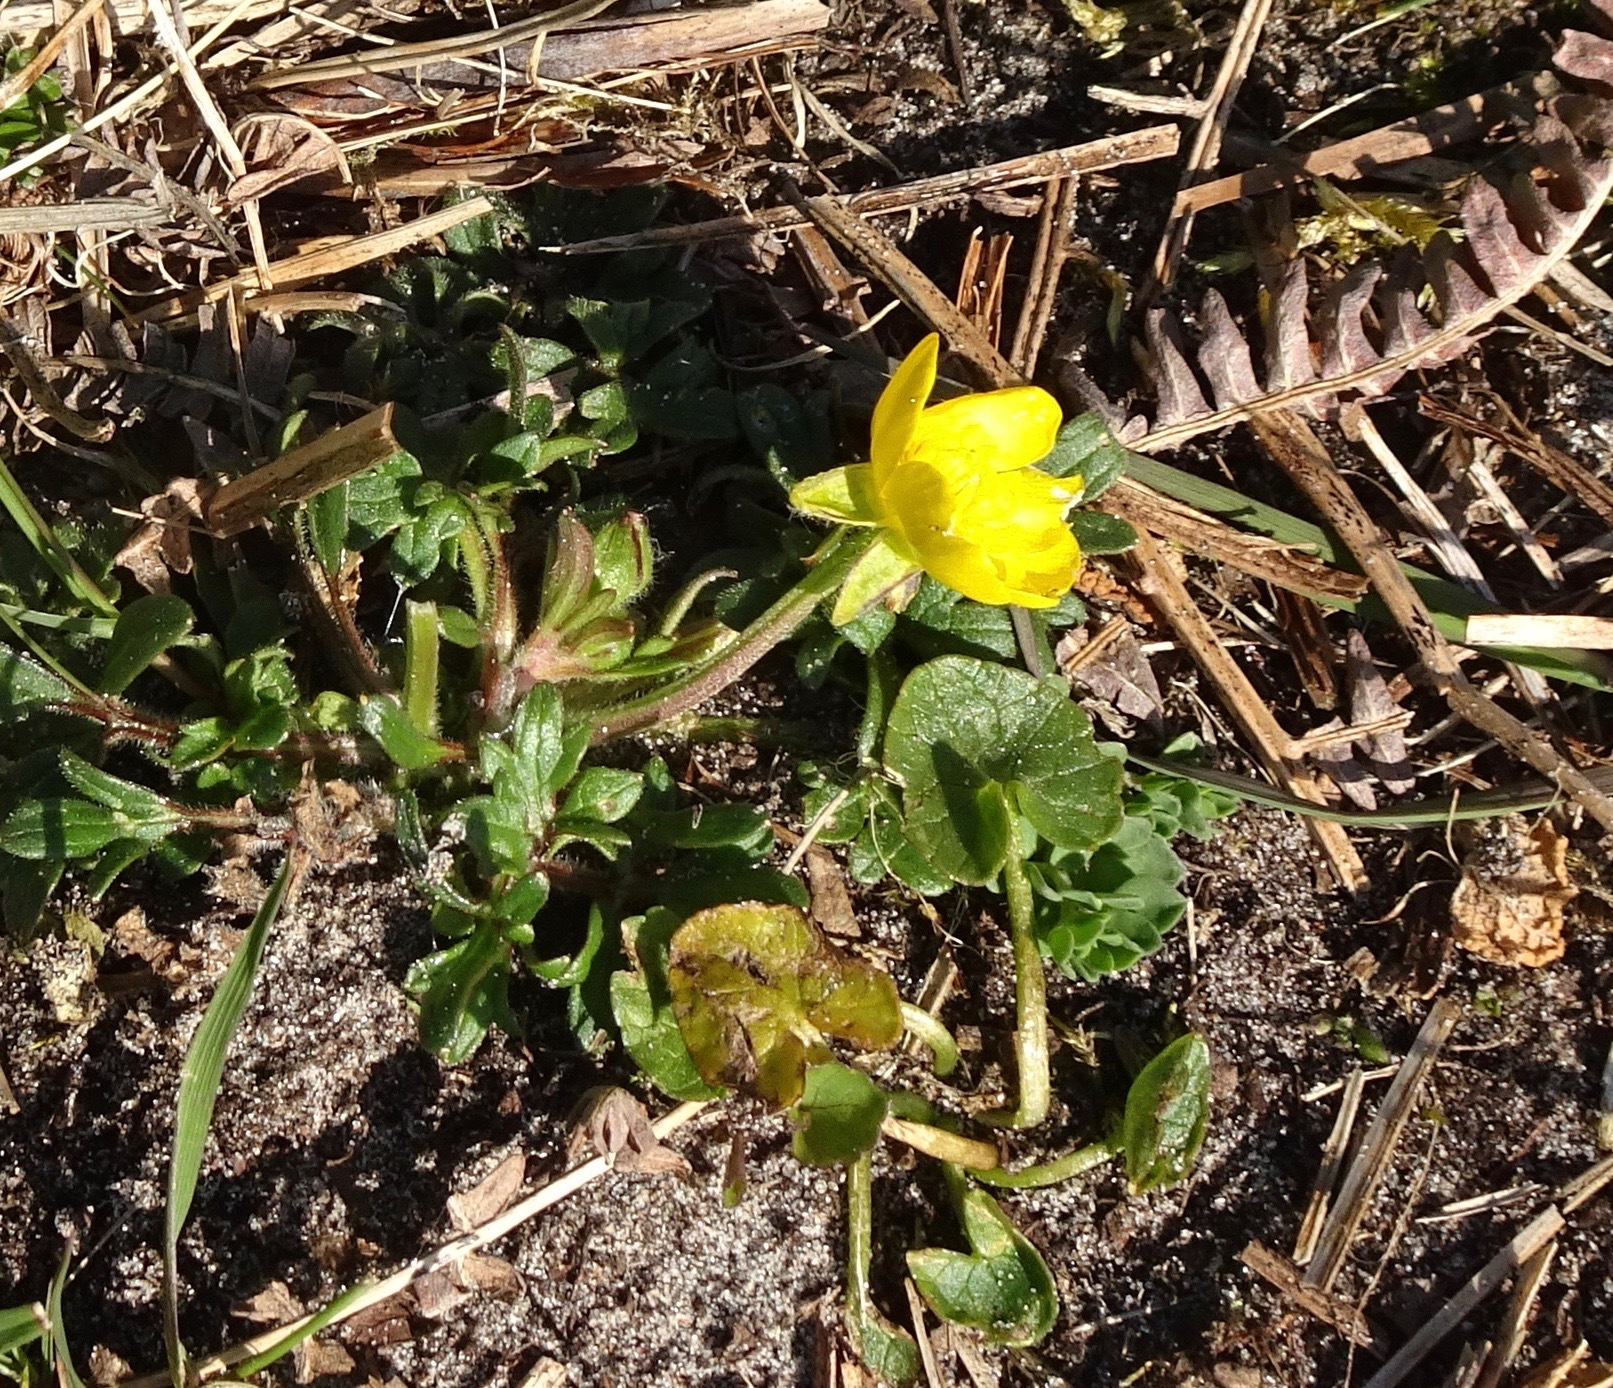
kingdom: Plantae
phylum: Tracheophyta
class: Magnoliopsida
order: Ranunculales
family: Ranunculaceae
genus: Ranunculus
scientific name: Ranunculus bulbosus
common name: Bulbous buttercup
